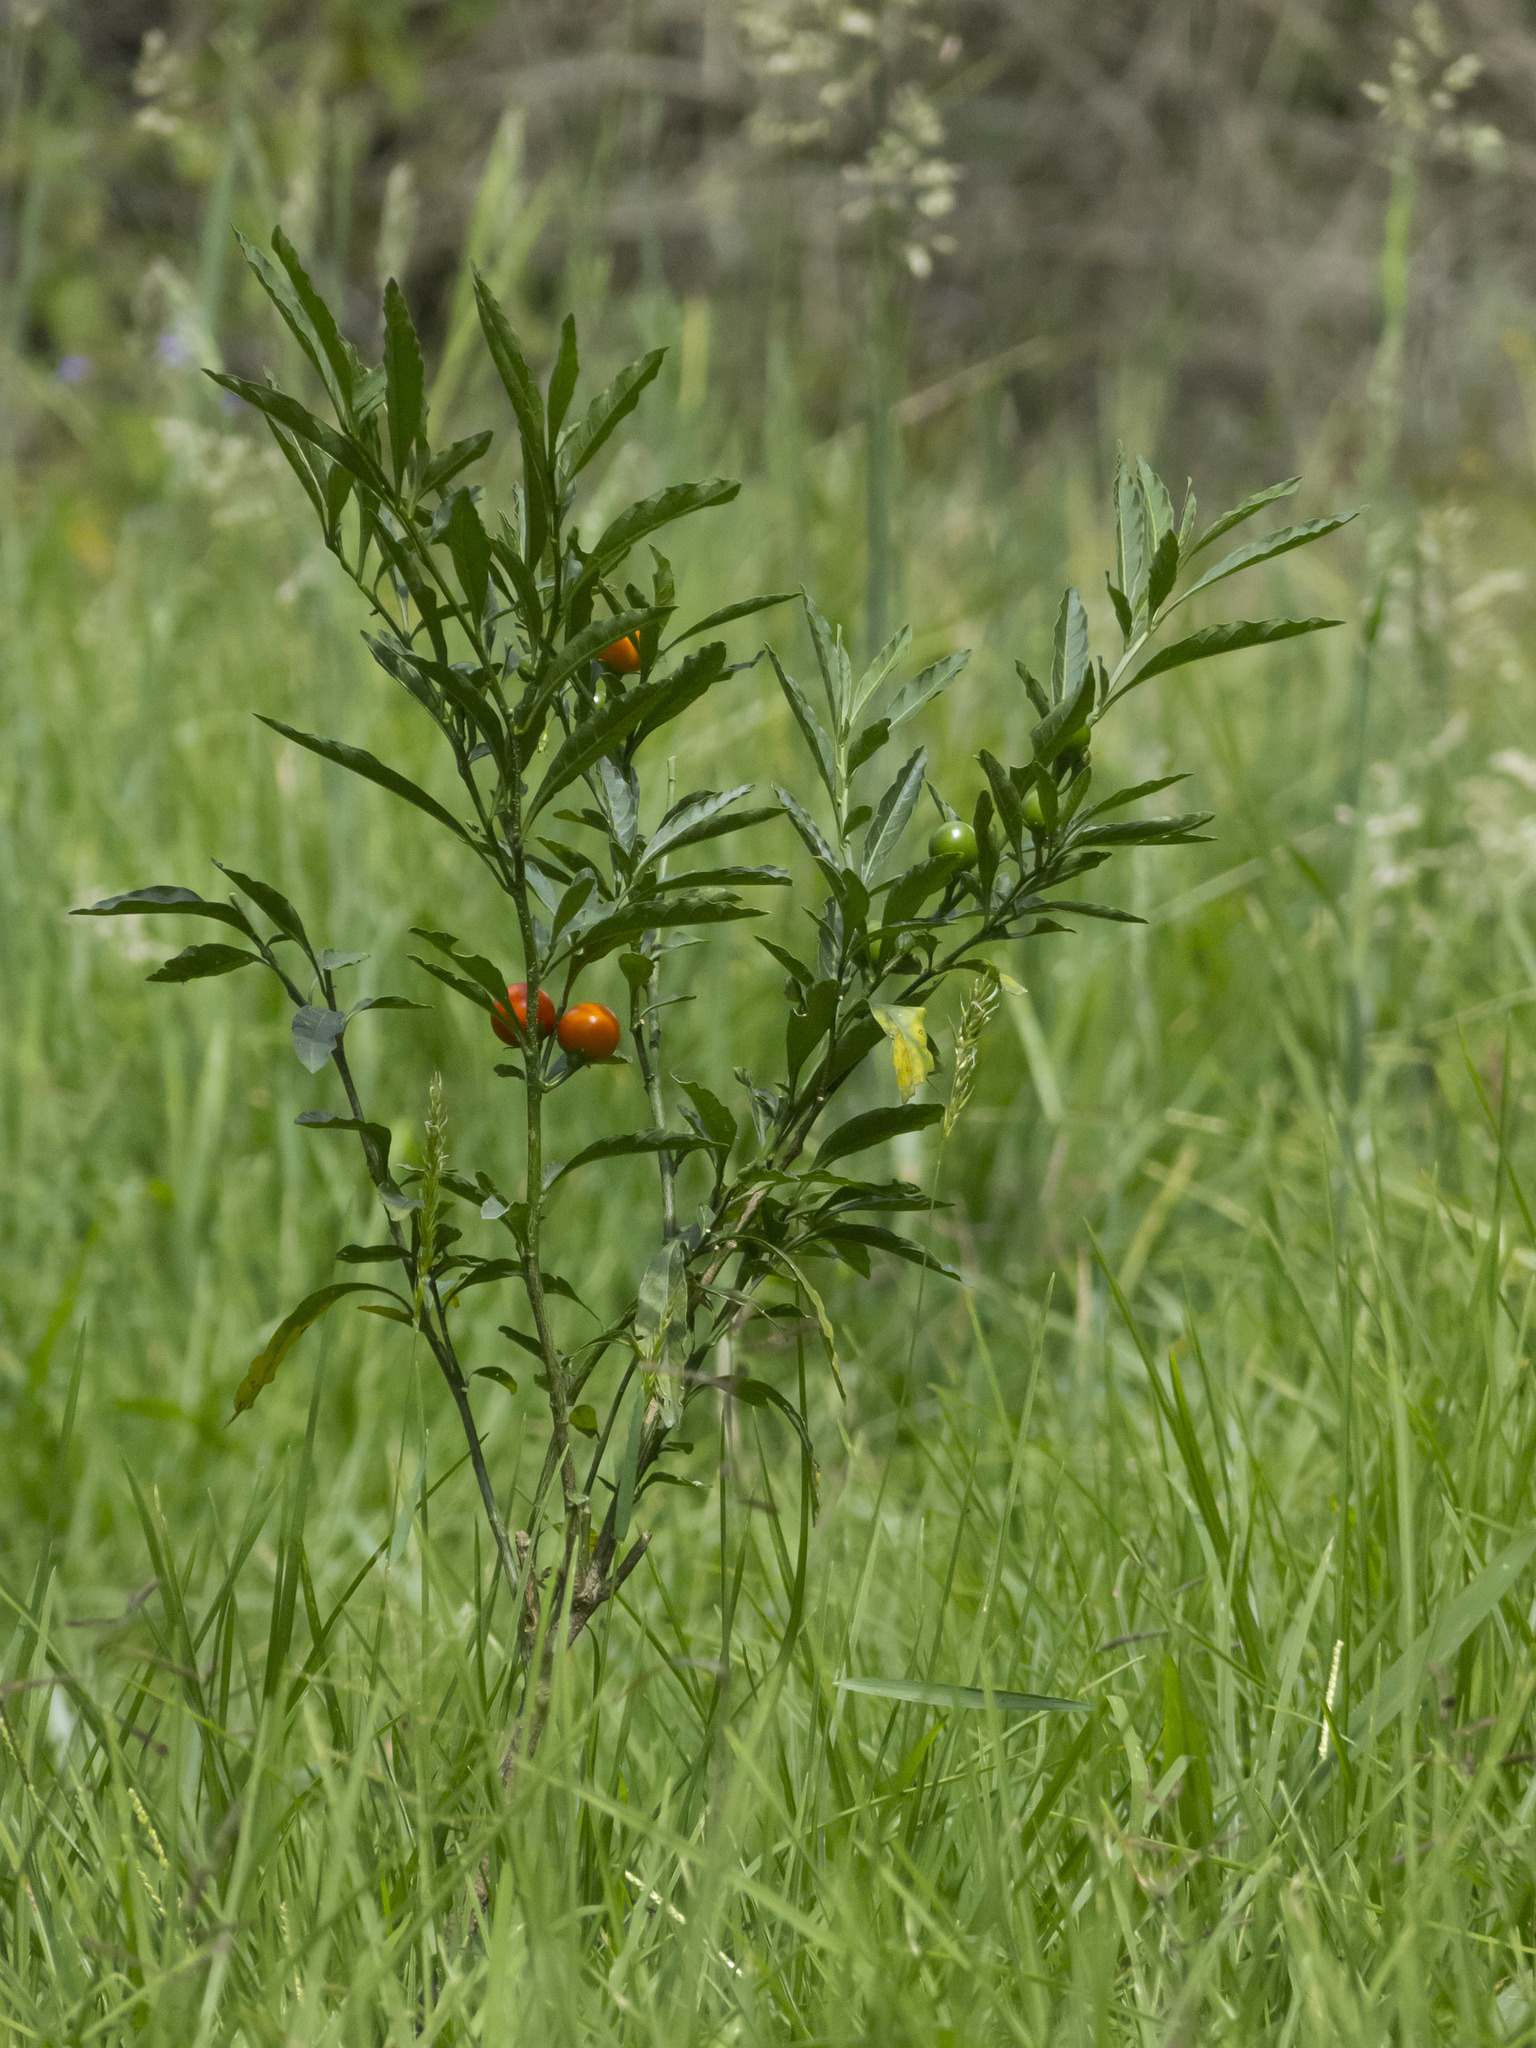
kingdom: Plantae
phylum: Tracheophyta
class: Magnoliopsida
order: Solanales
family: Solanaceae
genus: Solanum
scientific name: Solanum pseudocapsicum
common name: Jerusalem cherry
